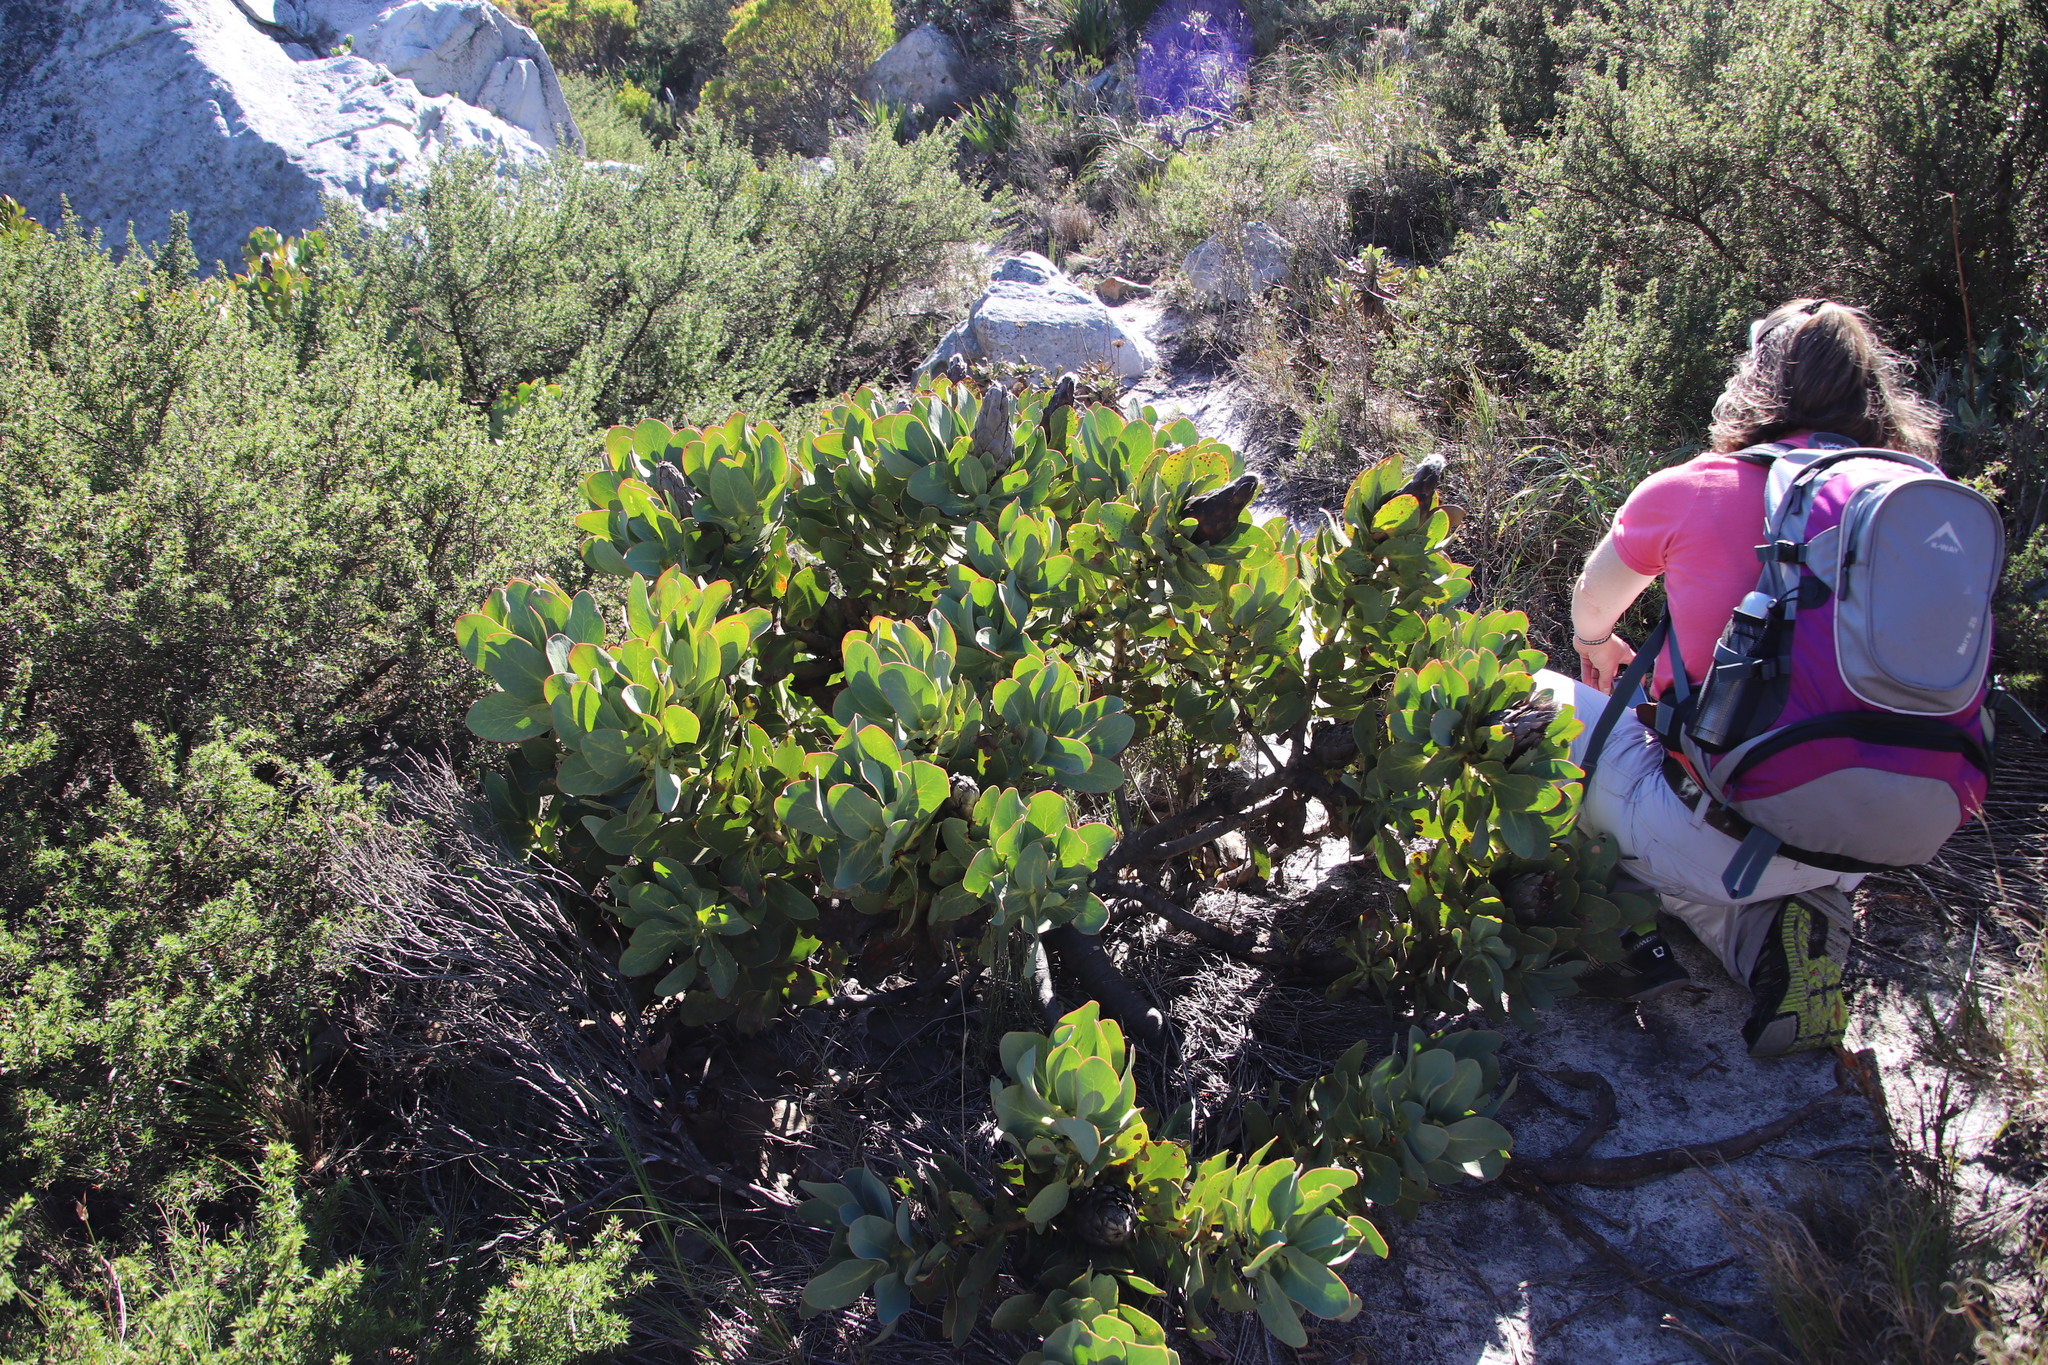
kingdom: Plantae
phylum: Tracheophyta
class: Magnoliopsida
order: Proteales
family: Proteaceae
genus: Protea
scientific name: Protea grandiceps
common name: Red sugarbush
